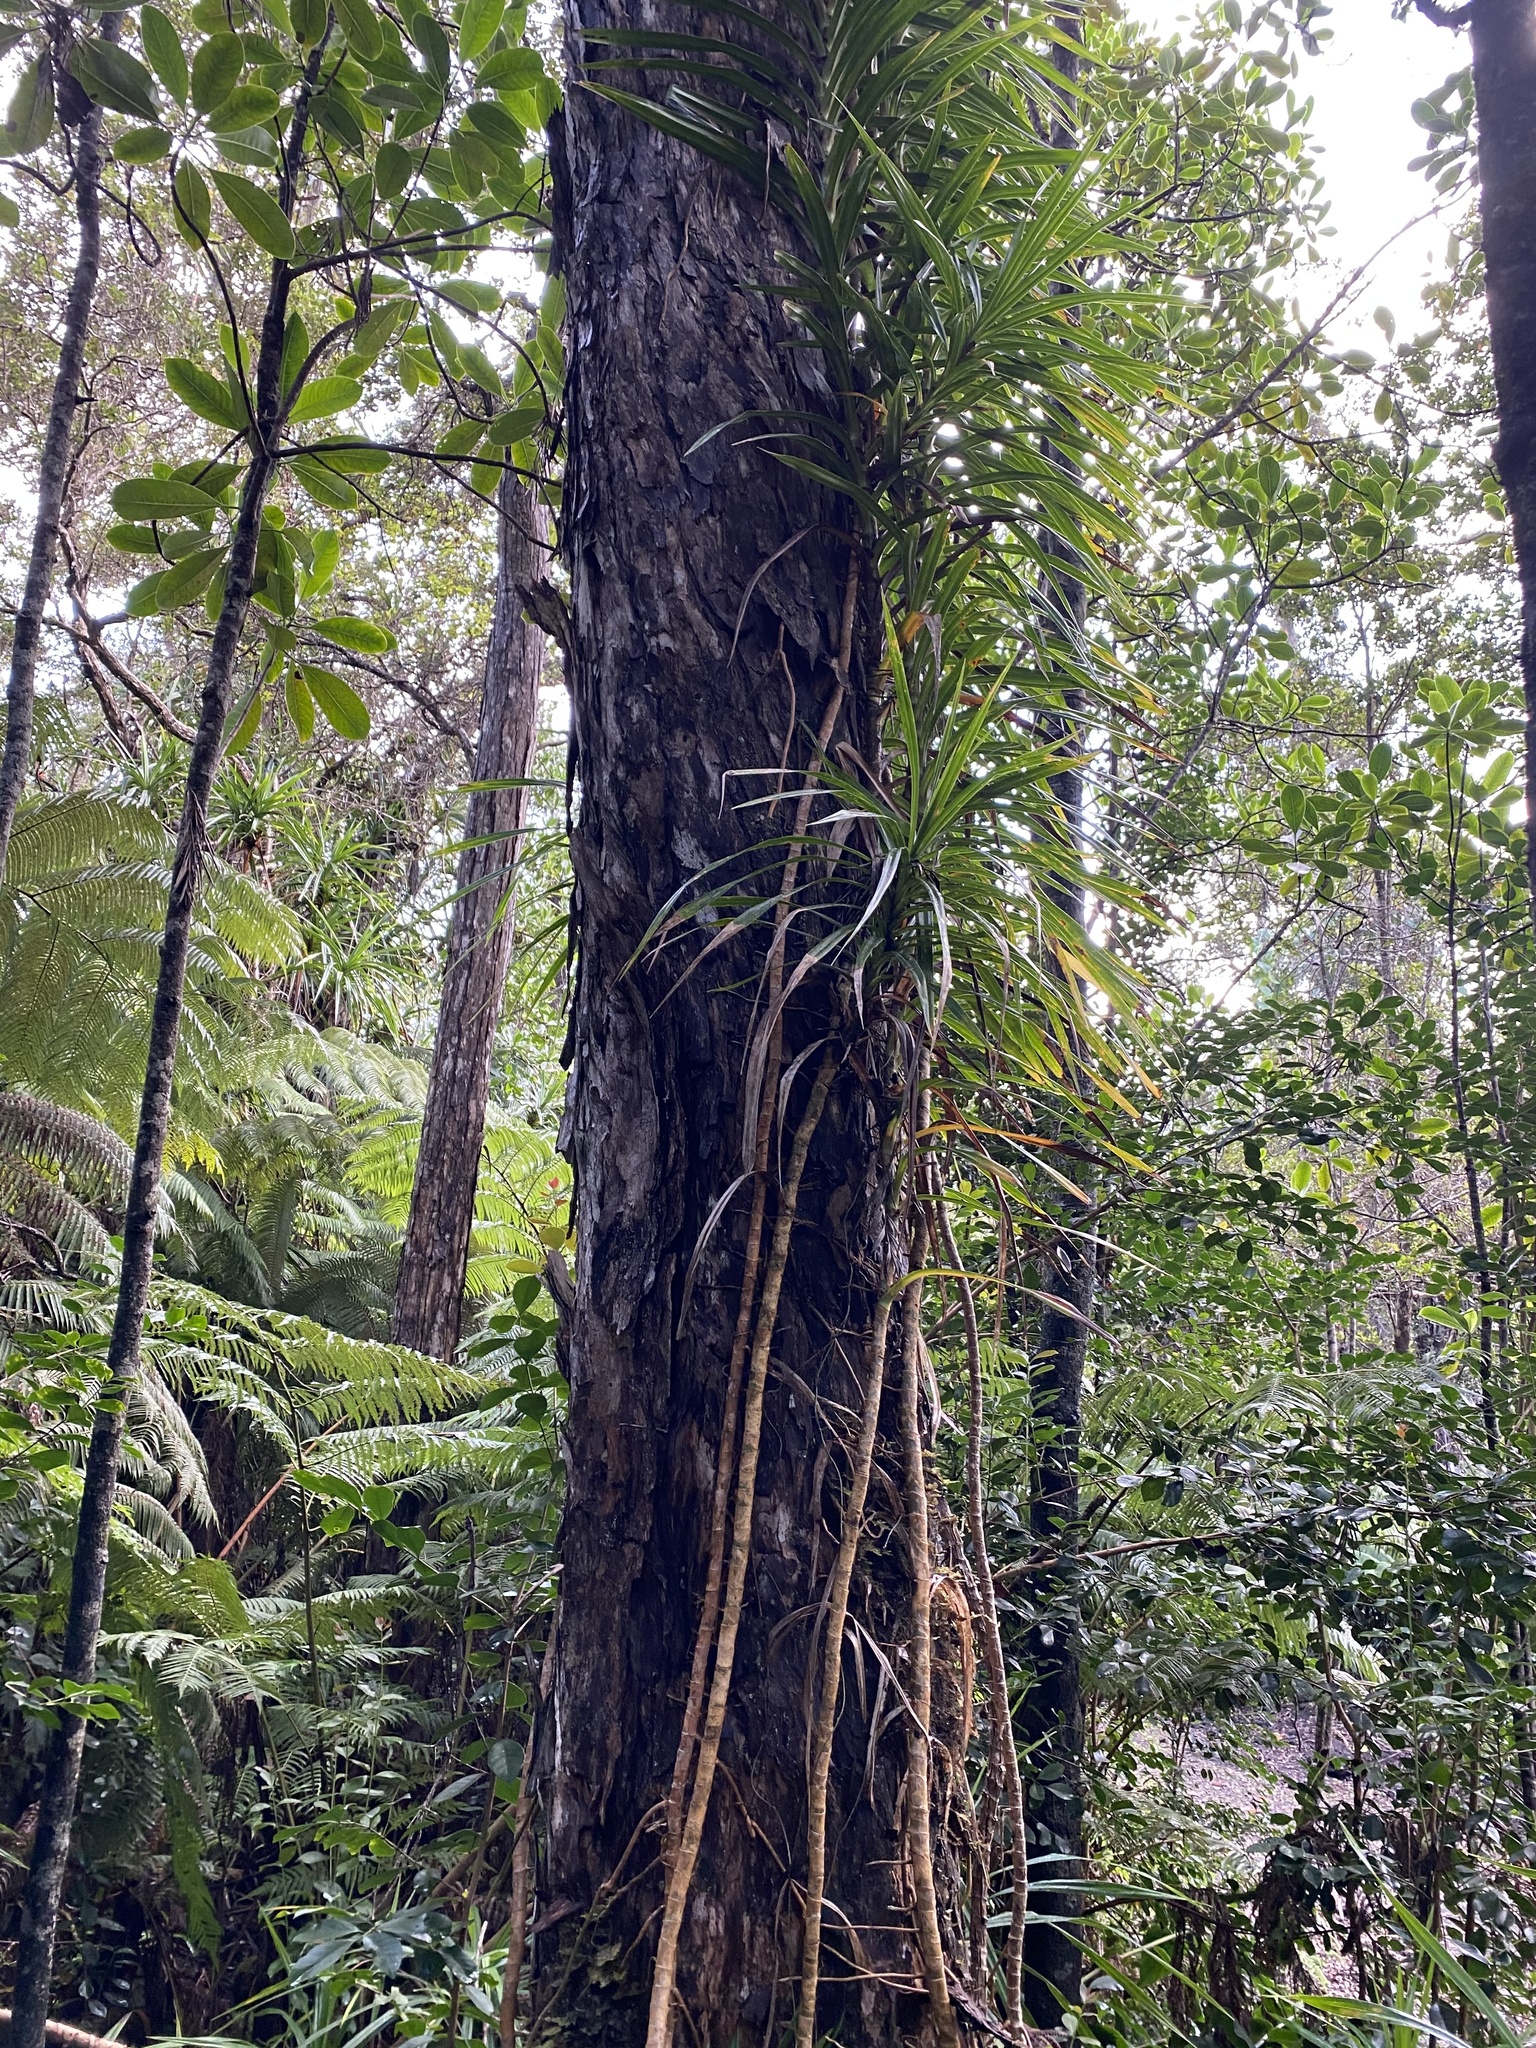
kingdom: Plantae
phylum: Tracheophyta
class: Liliopsida
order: Pandanales
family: Pandanaceae
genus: Freycinetia
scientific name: Freycinetia arborea
